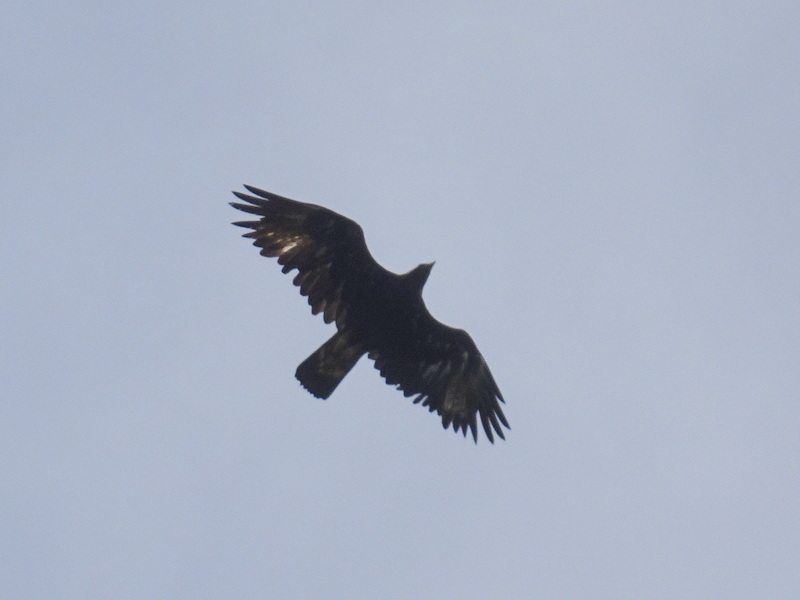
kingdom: Animalia
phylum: Chordata
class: Aves
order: Accipitriformes
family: Accipitridae
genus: Aquila
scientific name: Aquila chrysaetos
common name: Golden eagle
